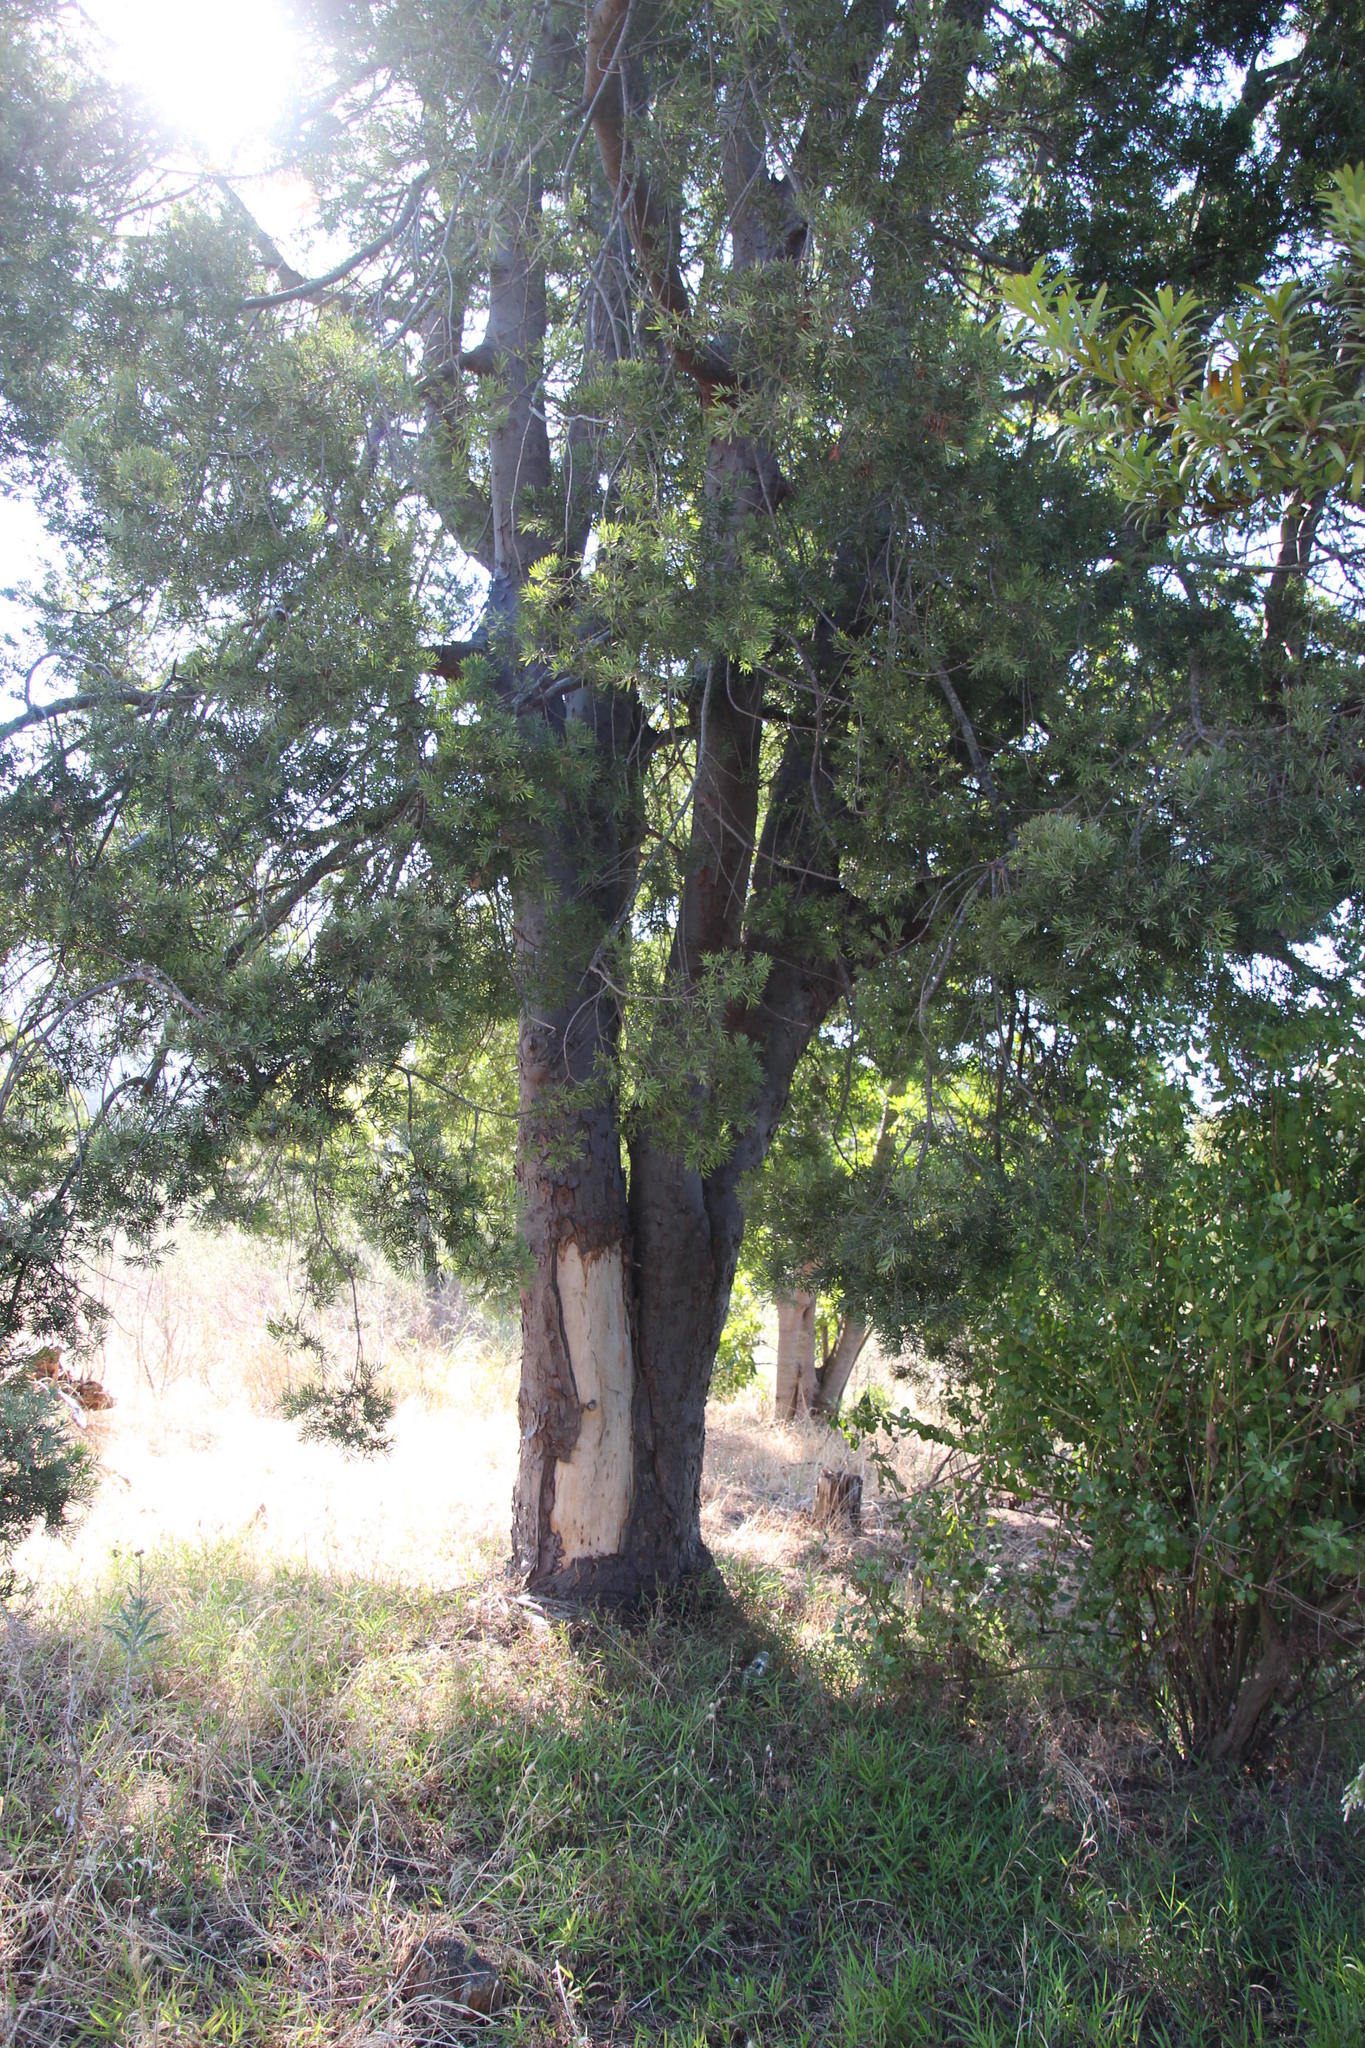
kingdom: Plantae
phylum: Tracheophyta
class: Pinopsida
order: Pinales
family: Podocarpaceae
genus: Afrocarpus
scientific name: Afrocarpus falcatus
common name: Bastard yellowwood
